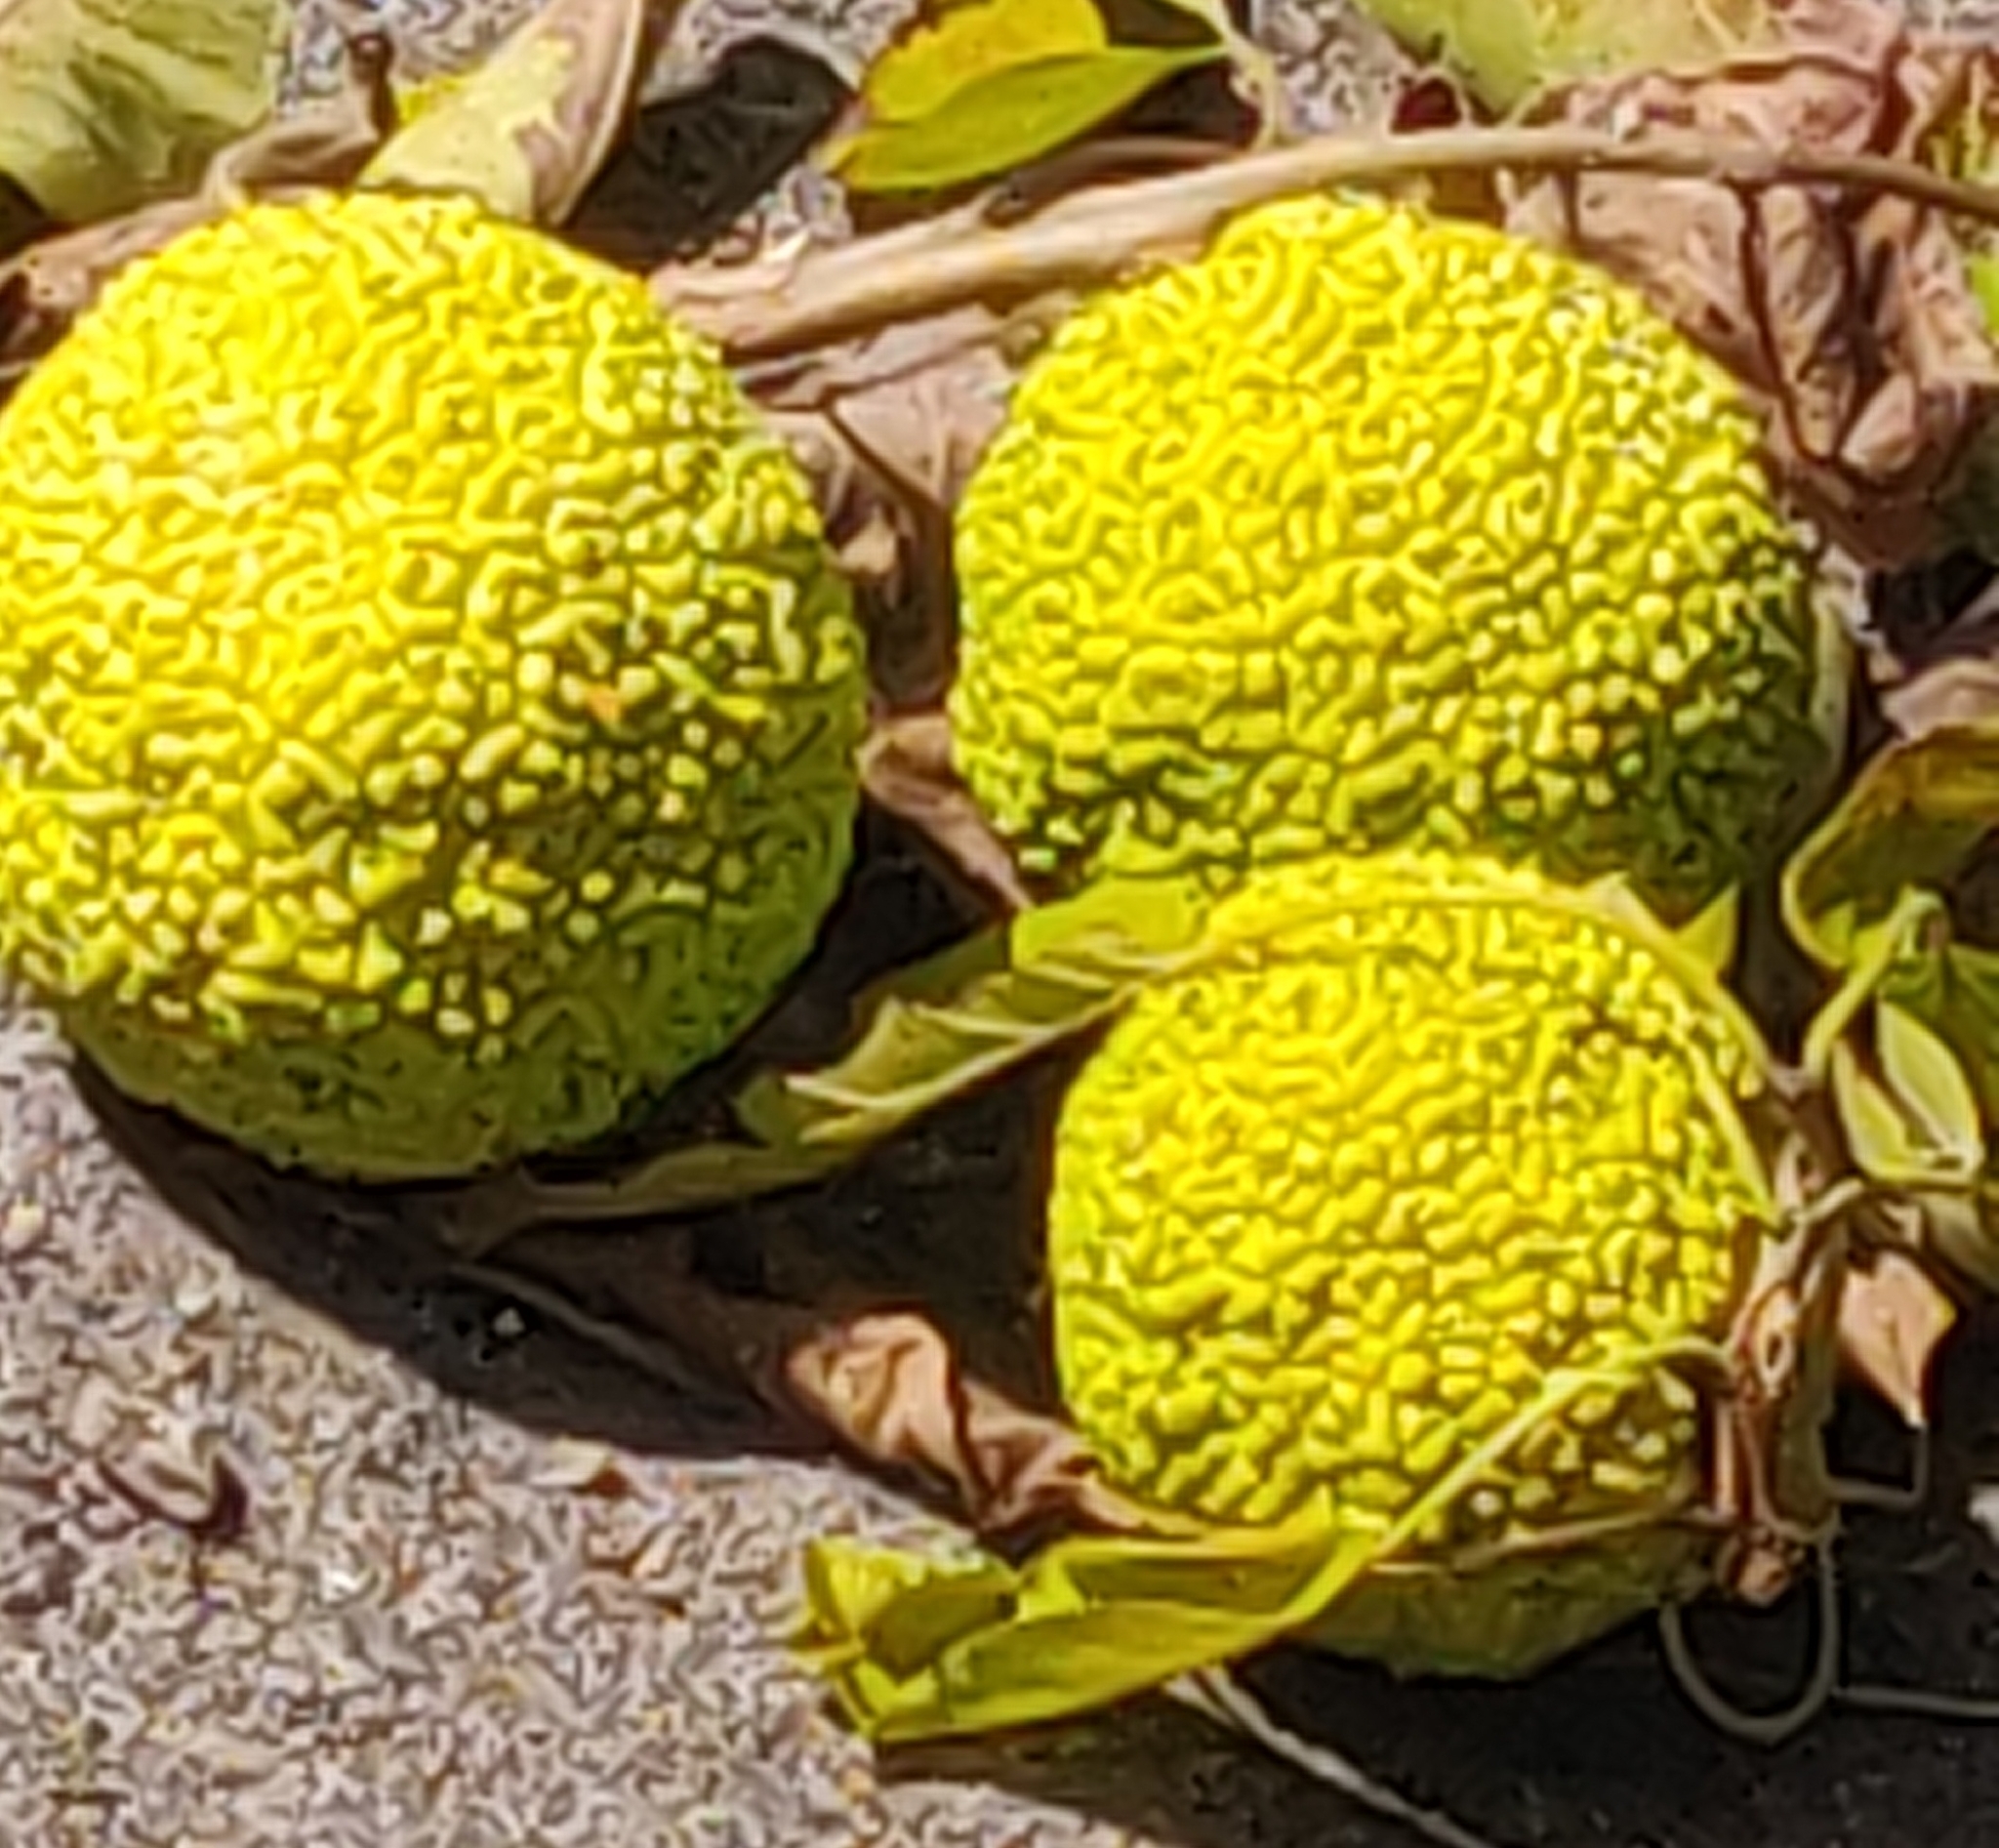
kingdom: Plantae
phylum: Tracheophyta
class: Magnoliopsida
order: Rosales
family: Moraceae
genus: Maclura
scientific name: Maclura pomifera
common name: Osage-orange
